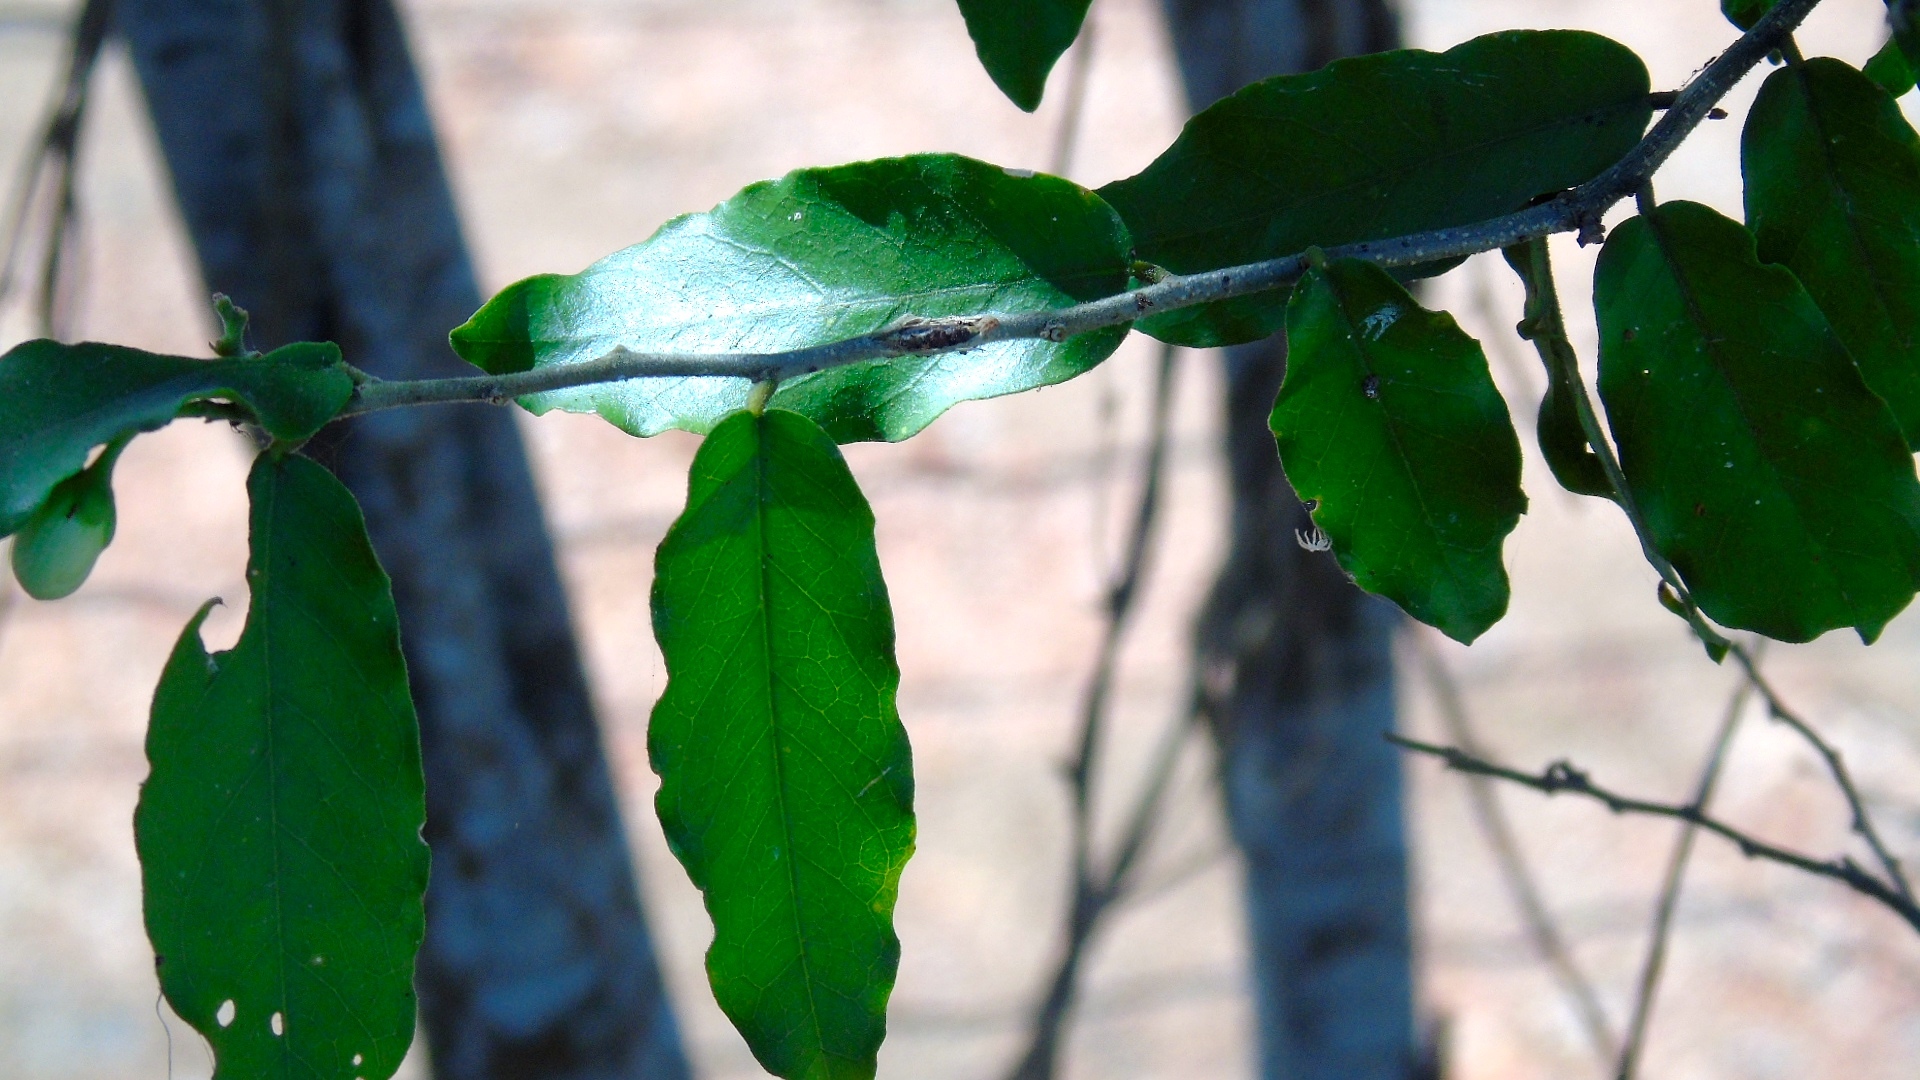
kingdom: Plantae
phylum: Tracheophyta
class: Magnoliopsida
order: Brassicales
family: Capparaceae
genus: Cynophalla
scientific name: Cynophalla flexuosa
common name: Capertree
